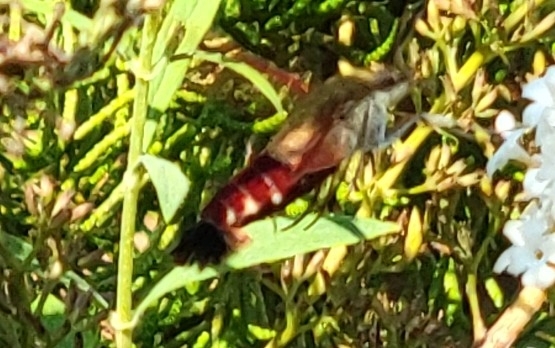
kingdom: Animalia
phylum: Arthropoda
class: Insecta
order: Lepidoptera
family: Sphingidae
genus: Hemaris
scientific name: Hemaris thysbe
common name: Common clear-wing
